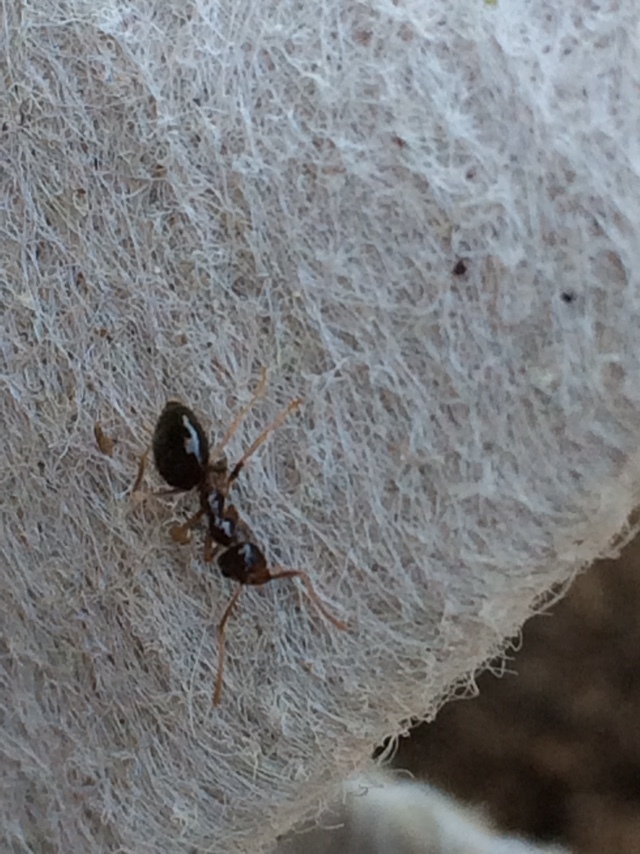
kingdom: Animalia
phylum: Arthropoda
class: Insecta
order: Hymenoptera
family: Formicidae
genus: Prenolepis
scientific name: Prenolepis imparis
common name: Small honey ant
